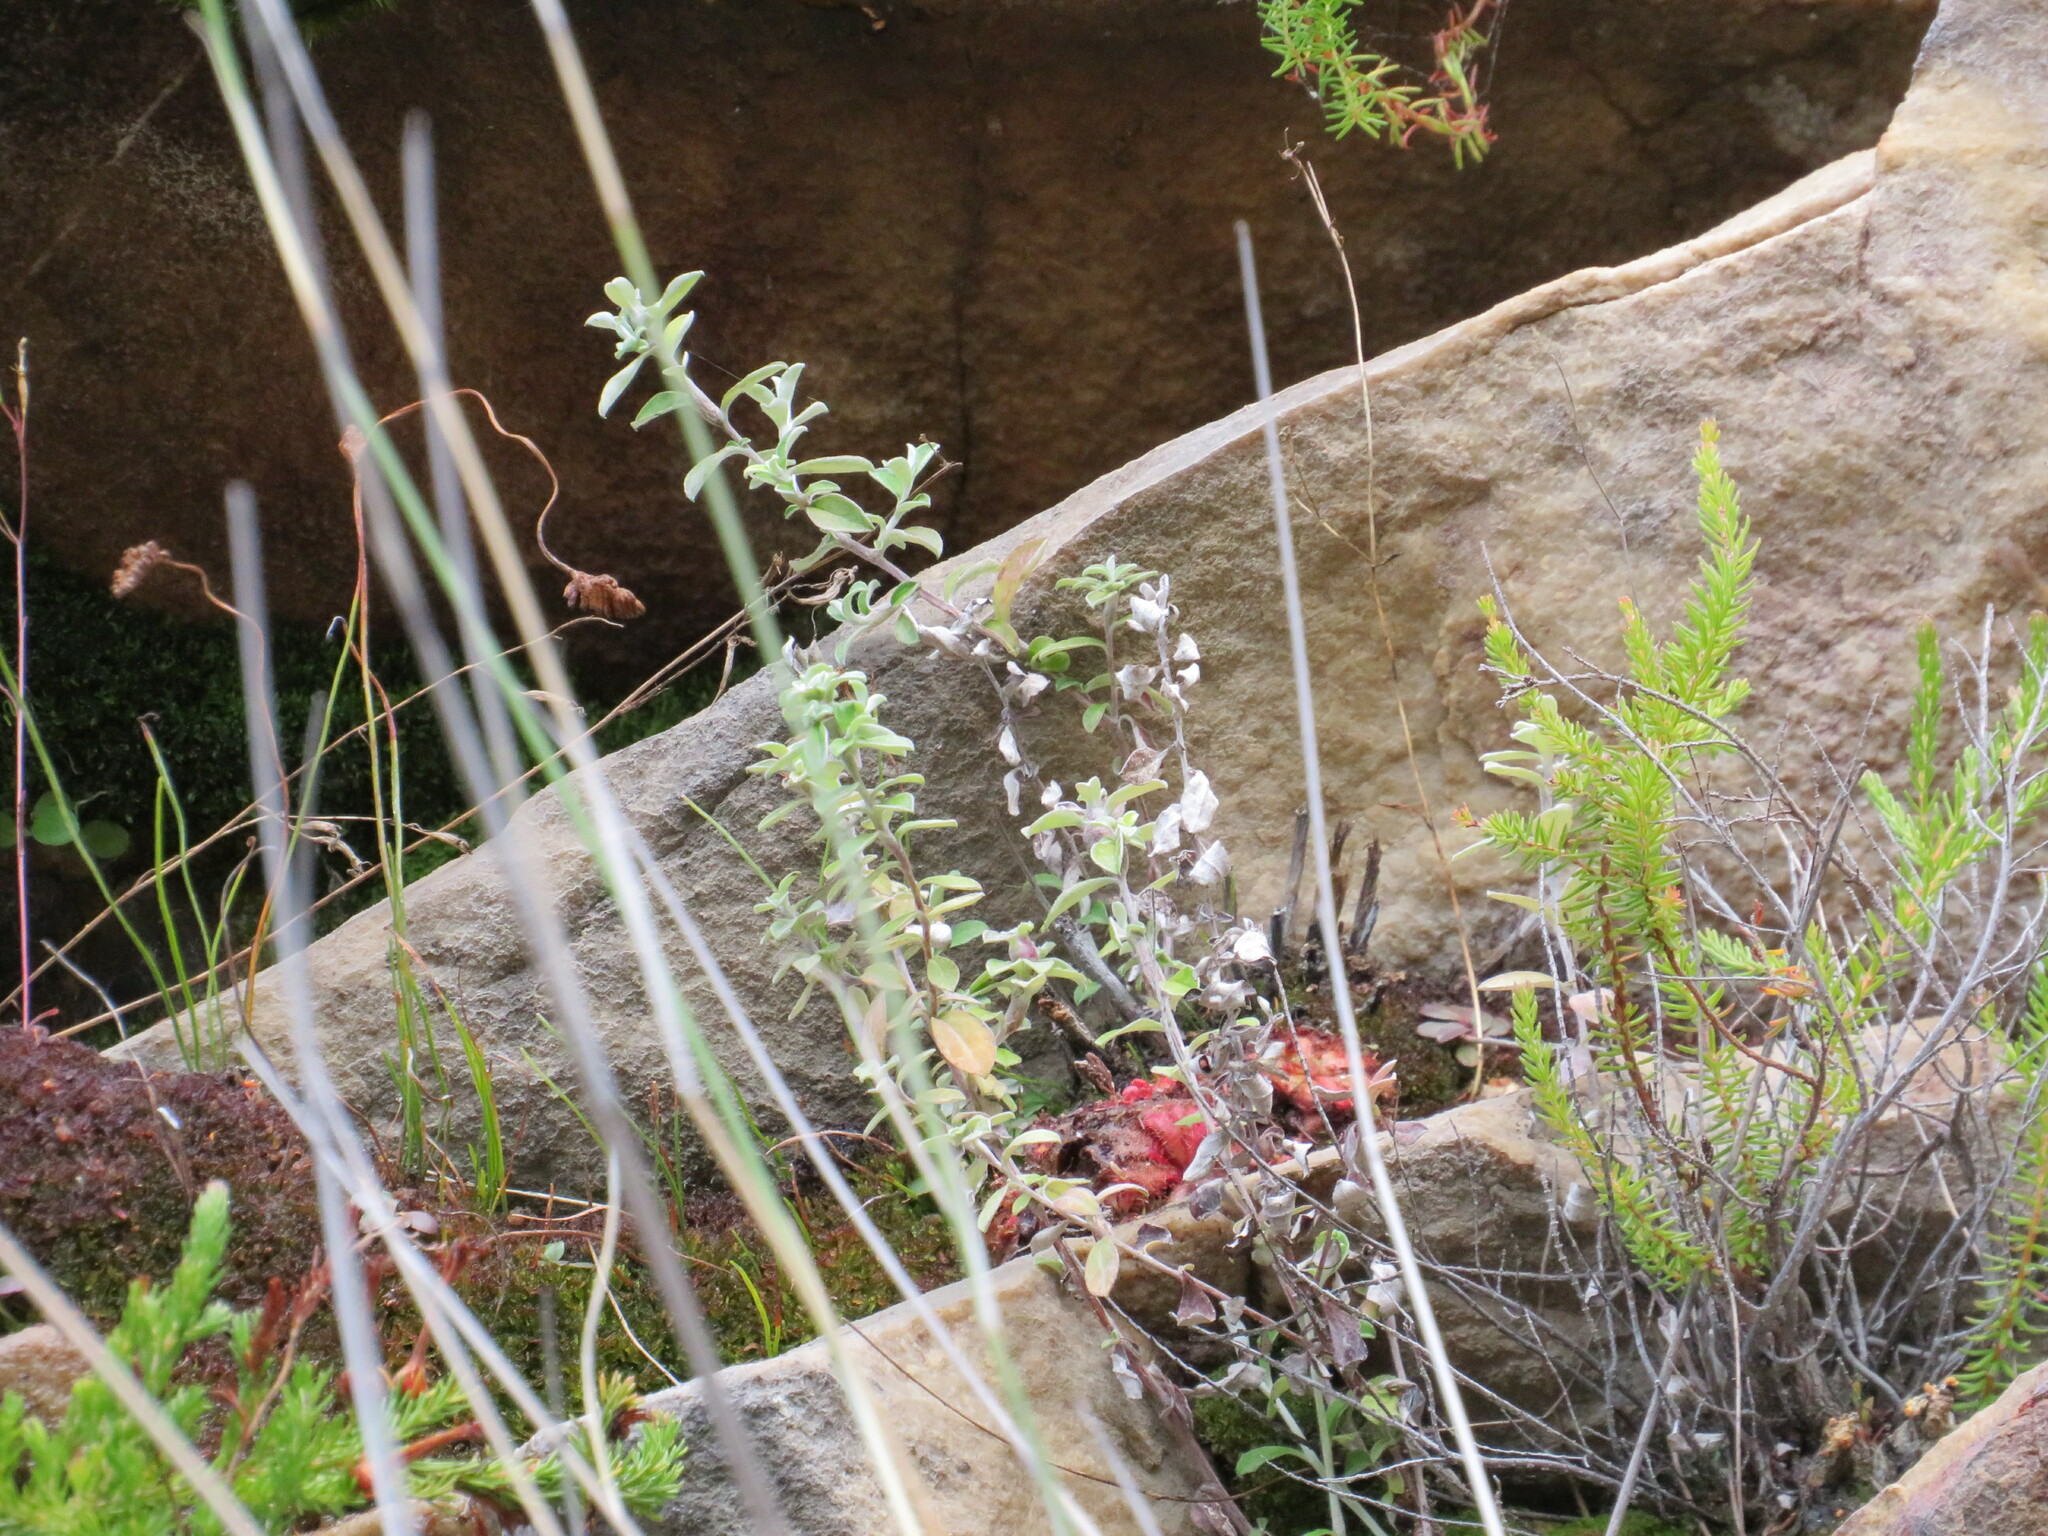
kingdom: Plantae
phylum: Tracheophyta
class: Polypodiopsida
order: Schizaeales
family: Schizaeaceae
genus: Microschizaea
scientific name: Microschizaea tenella
